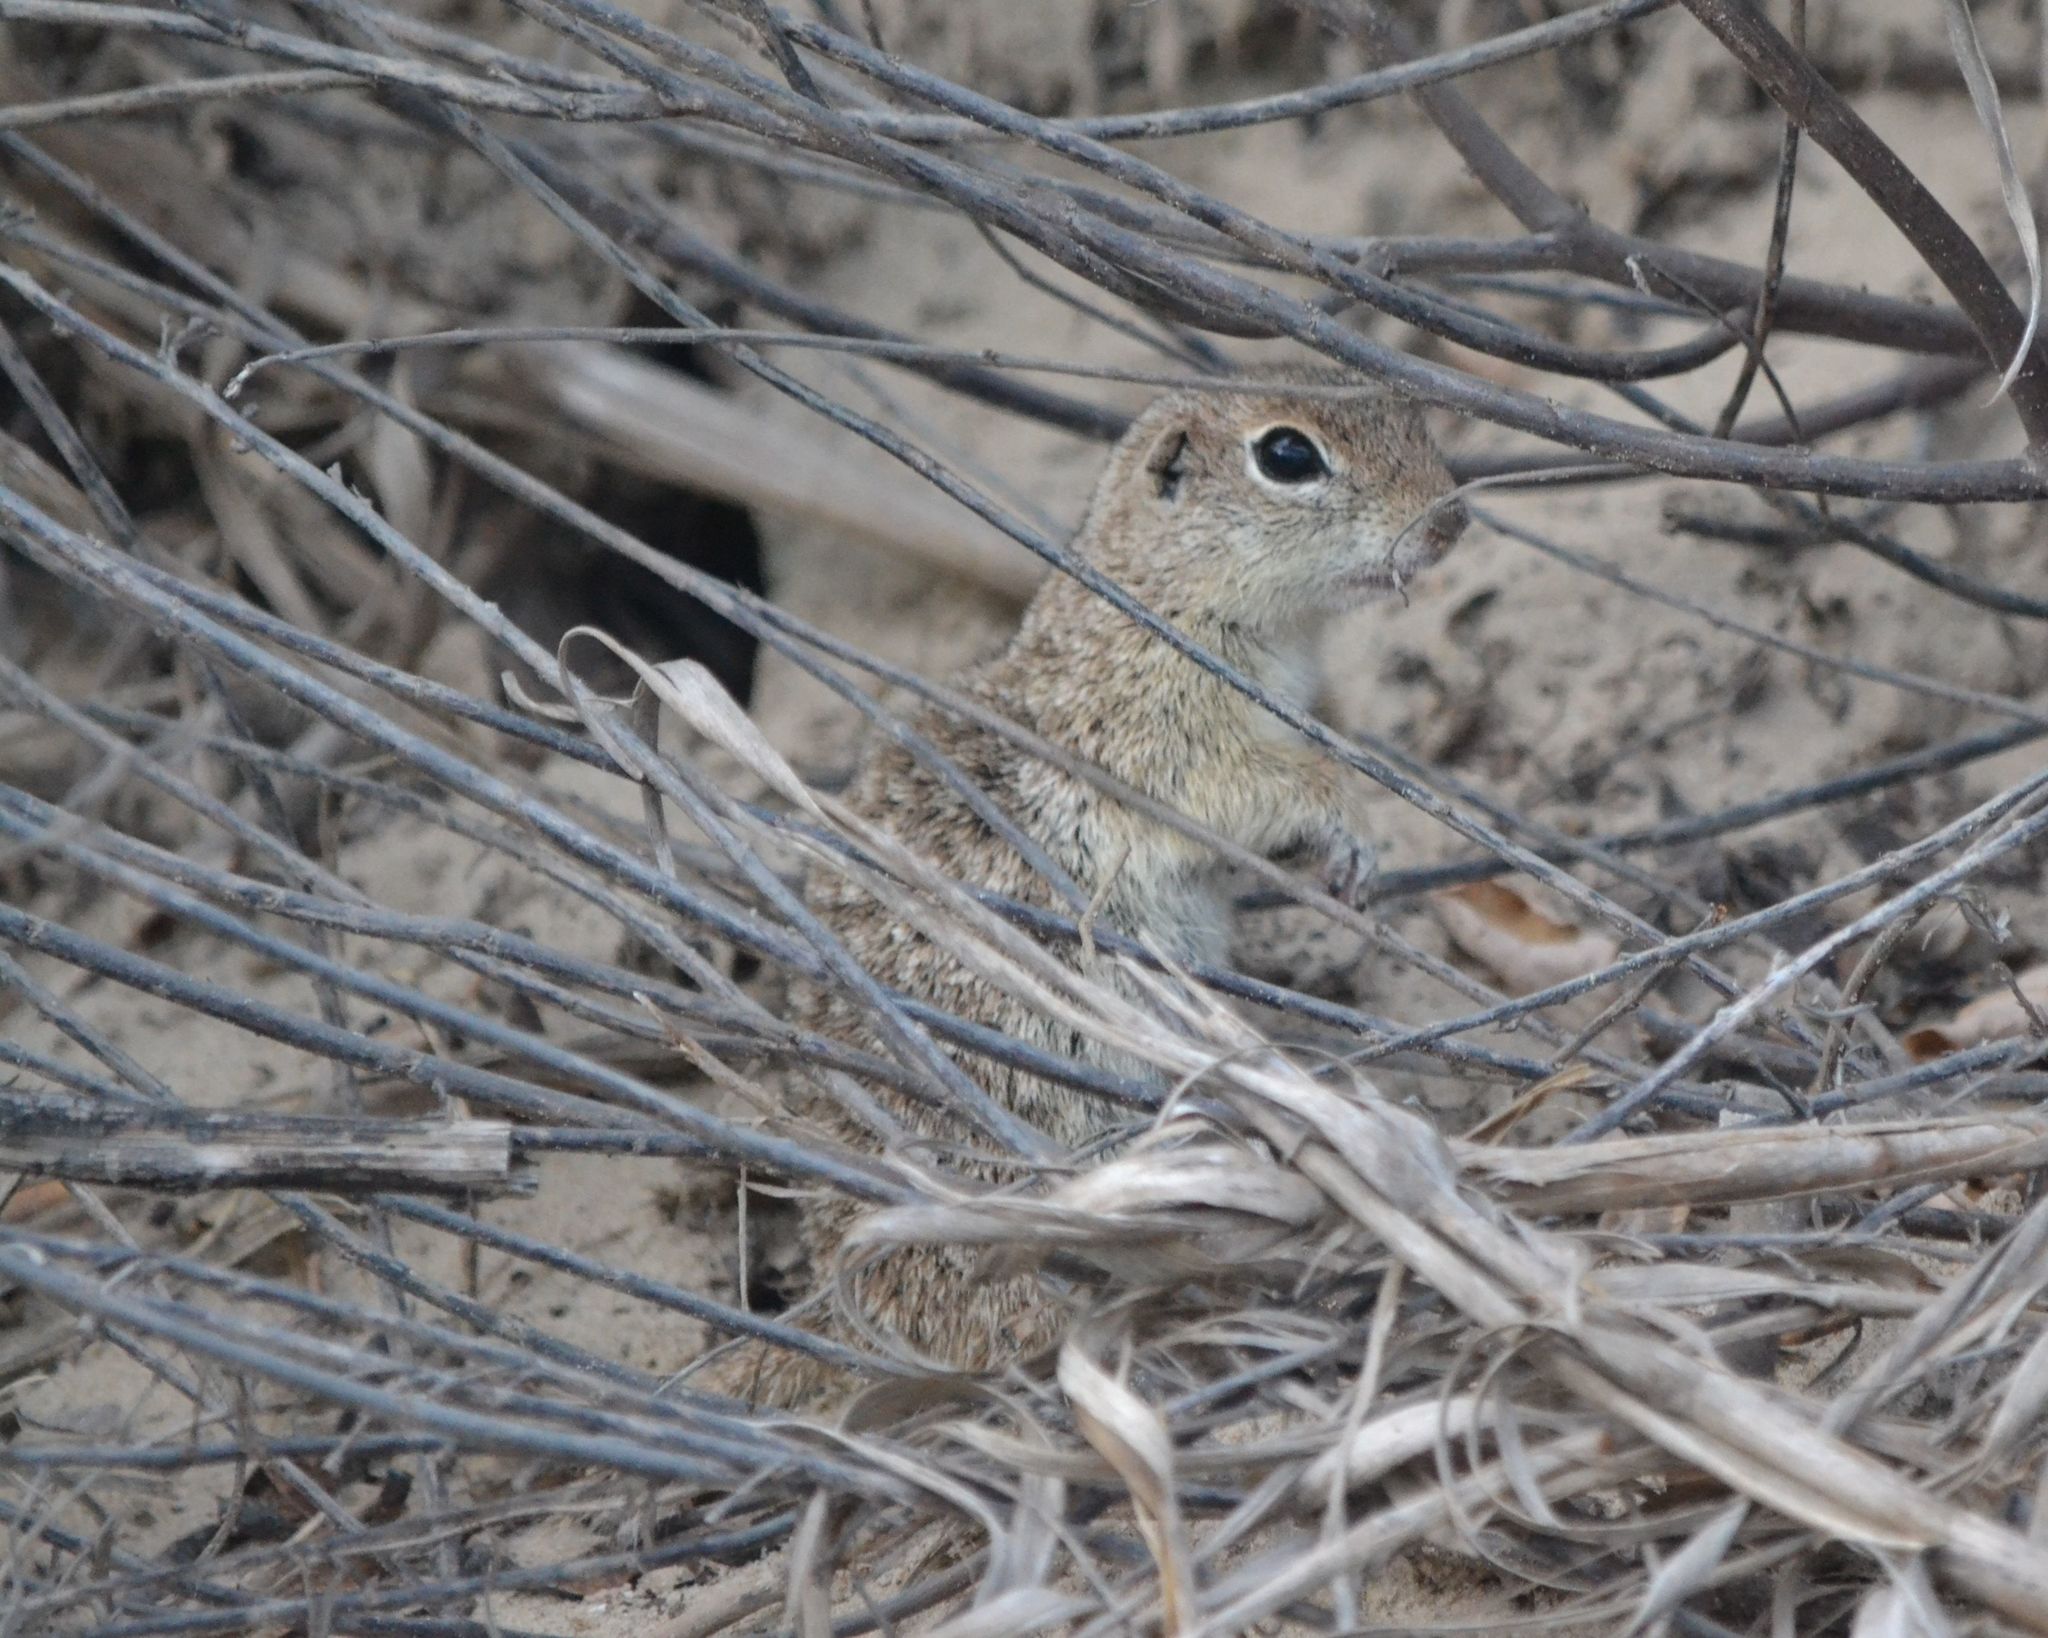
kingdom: Animalia
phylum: Chordata
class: Mammalia
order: Rodentia
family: Sciuridae
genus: Xerospermophilus
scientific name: Xerospermophilus spilosoma
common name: Spotted ground squirrel
